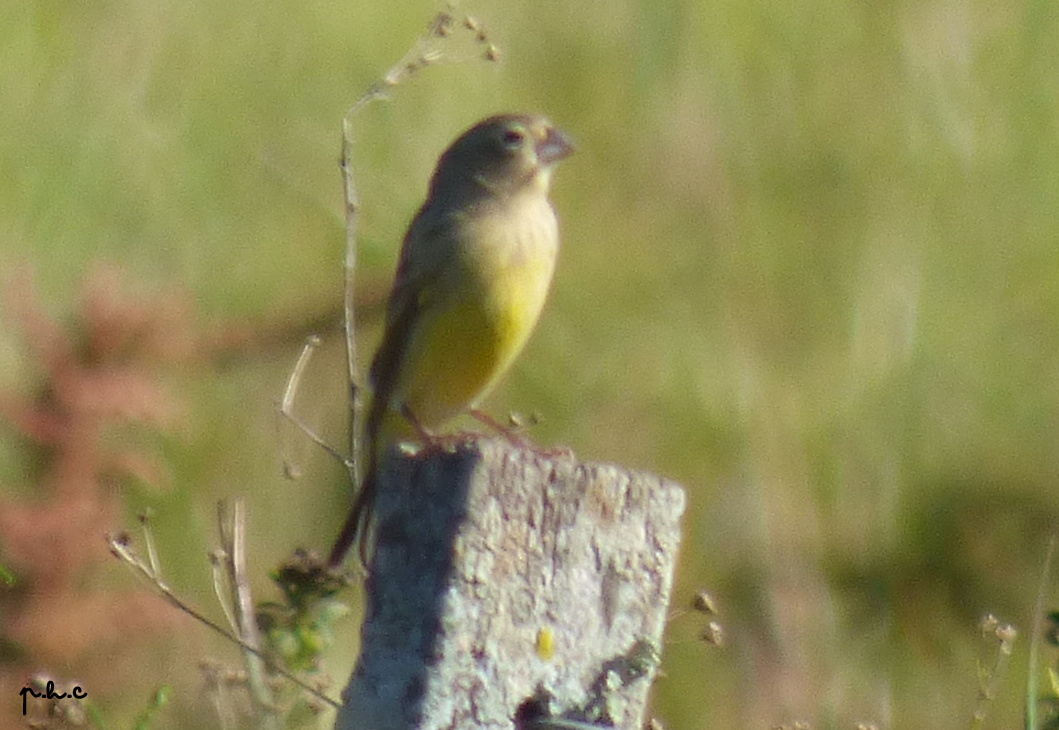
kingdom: Animalia
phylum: Chordata
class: Aves
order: Passeriformes
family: Thraupidae
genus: Sicalis
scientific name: Sicalis luteola
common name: Grassland yellow-finch
